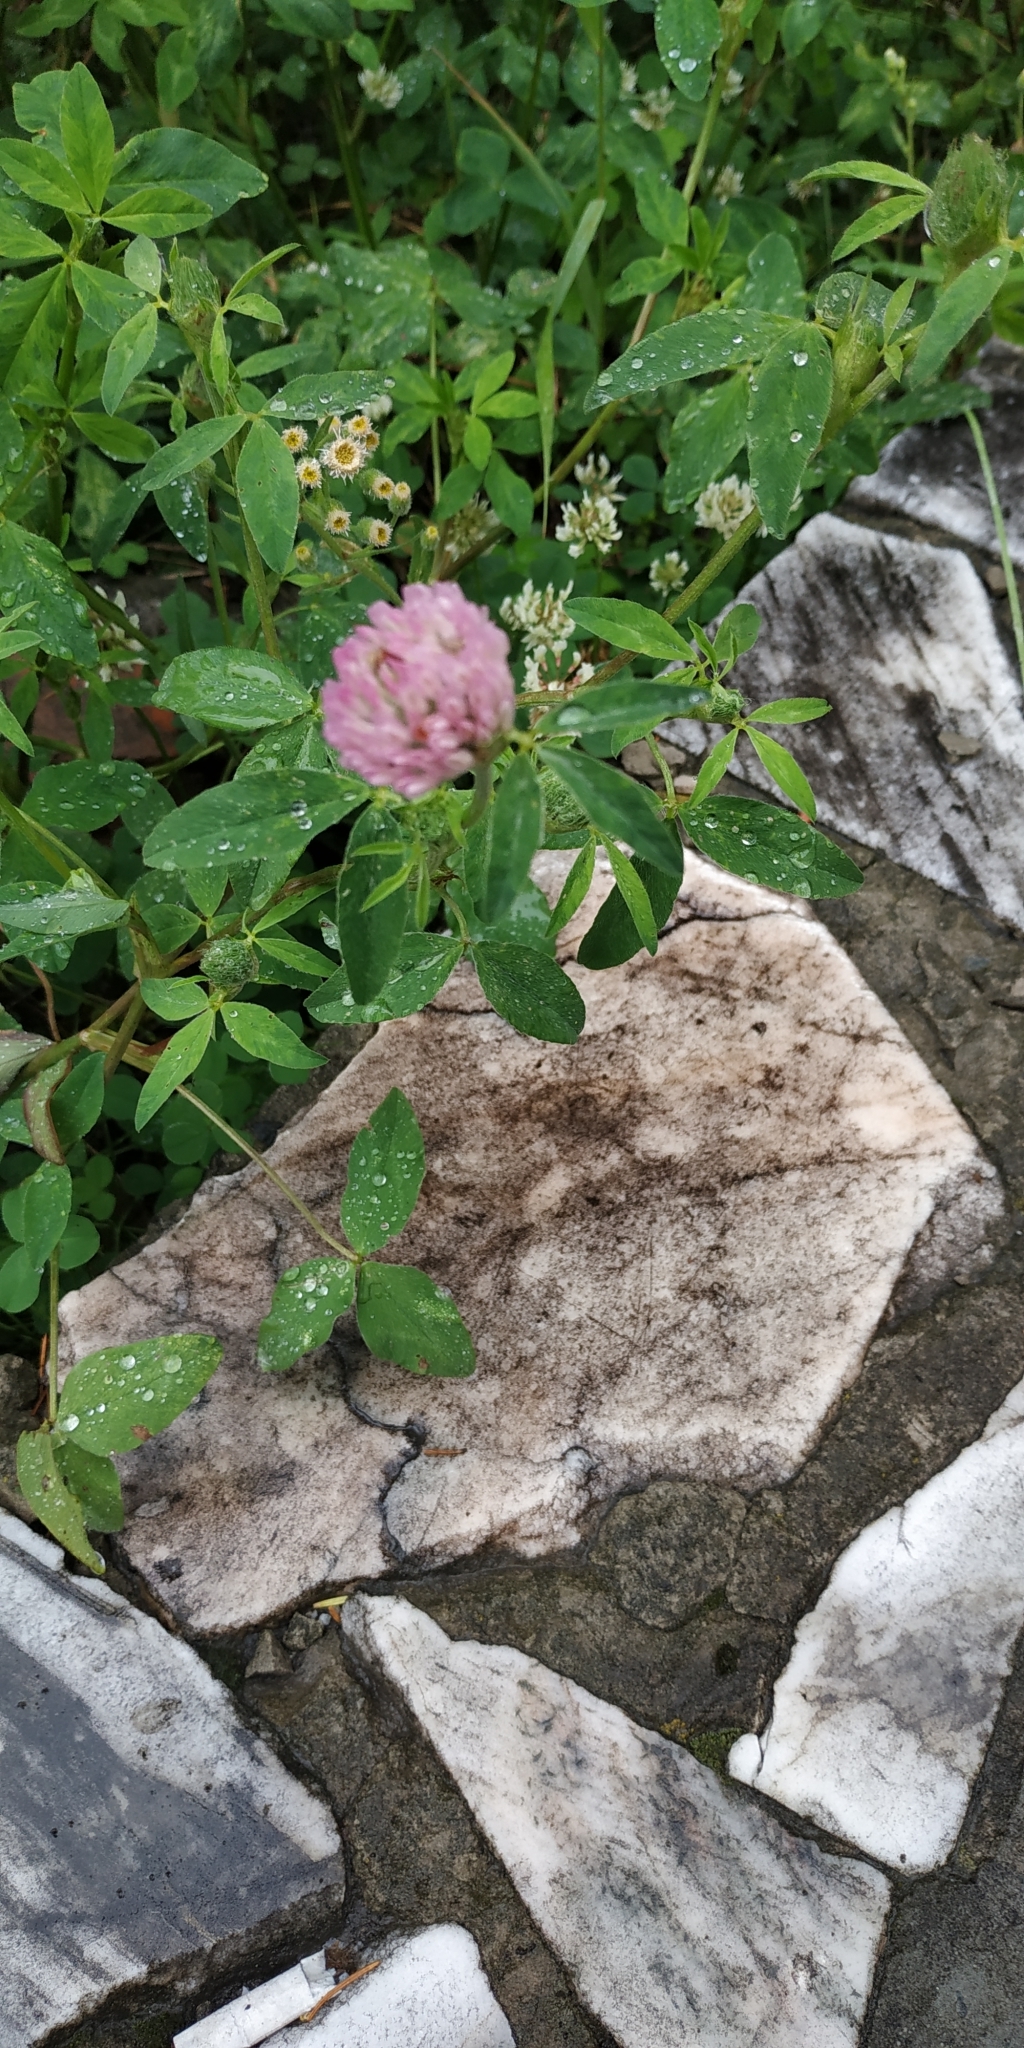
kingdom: Plantae
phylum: Tracheophyta
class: Magnoliopsida
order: Fabales
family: Fabaceae
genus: Trifolium
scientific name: Trifolium pratense
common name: Red clover
